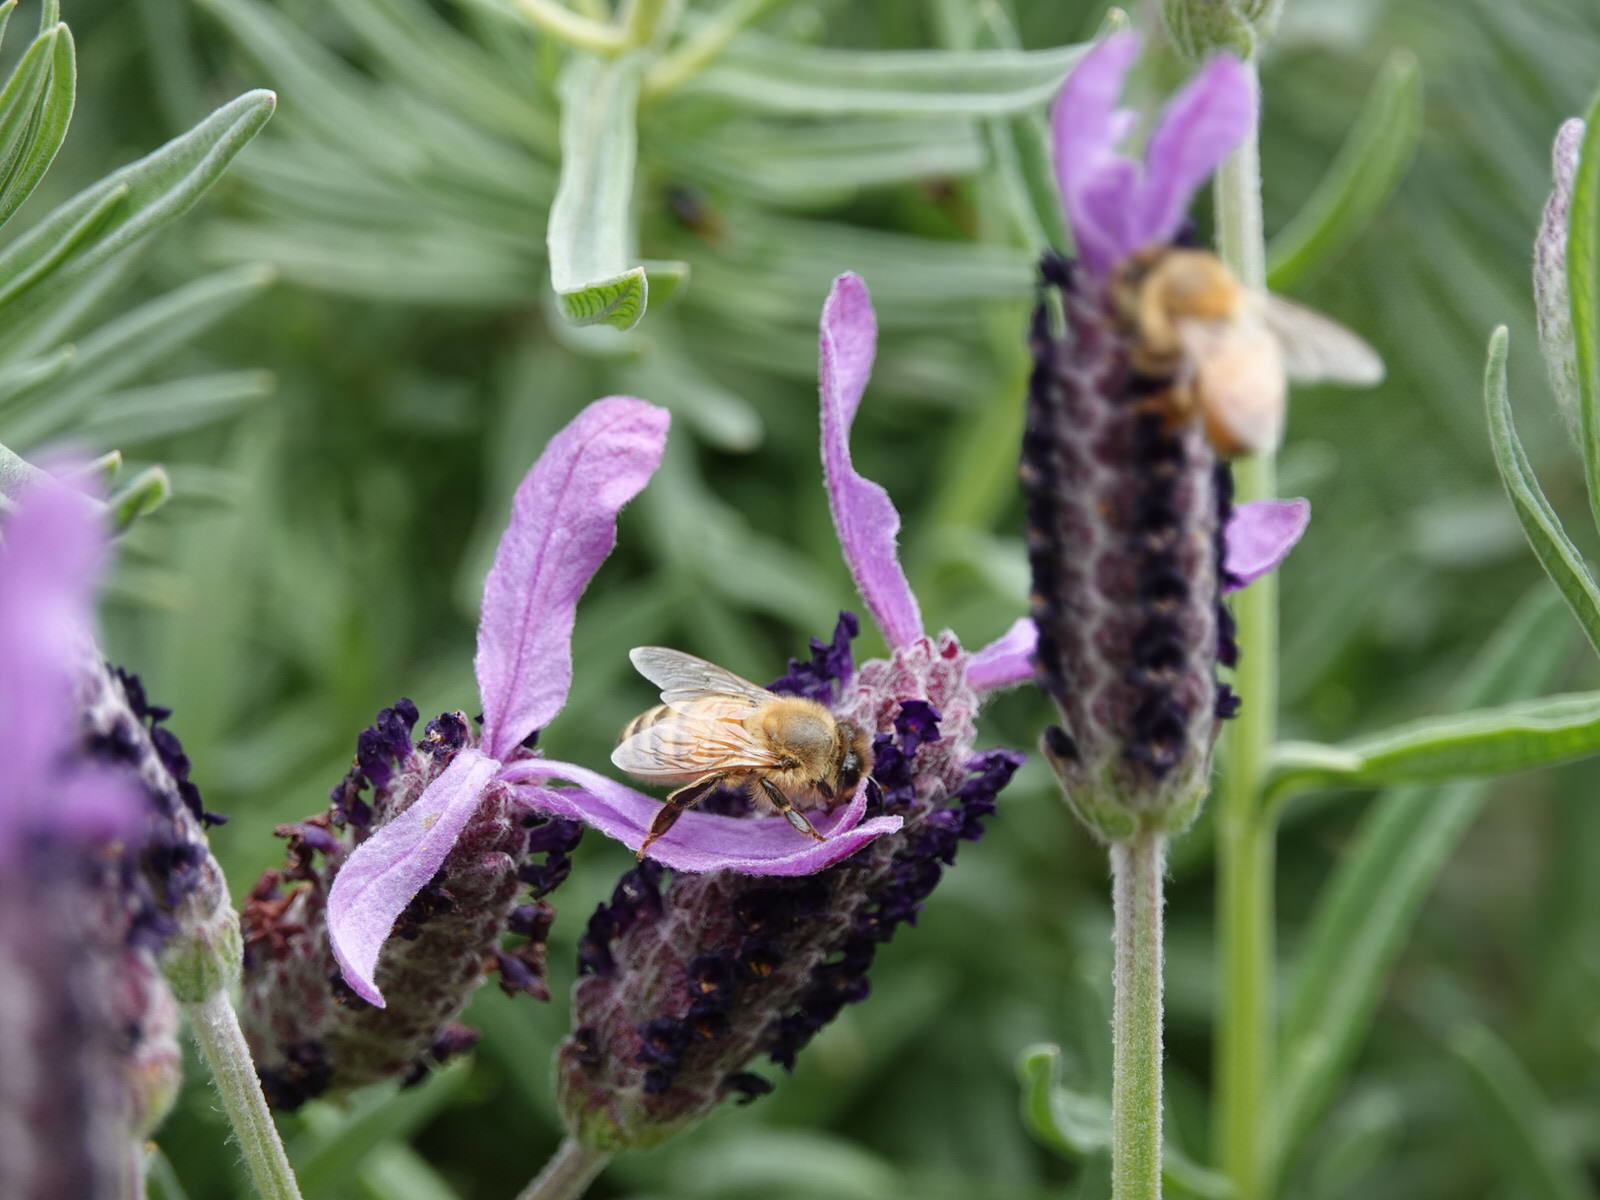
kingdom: Animalia
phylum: Arthropoda
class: Insecta
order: Hymenoptera
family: Apidae
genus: Apis
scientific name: Apis mellifera
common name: Honey bee
